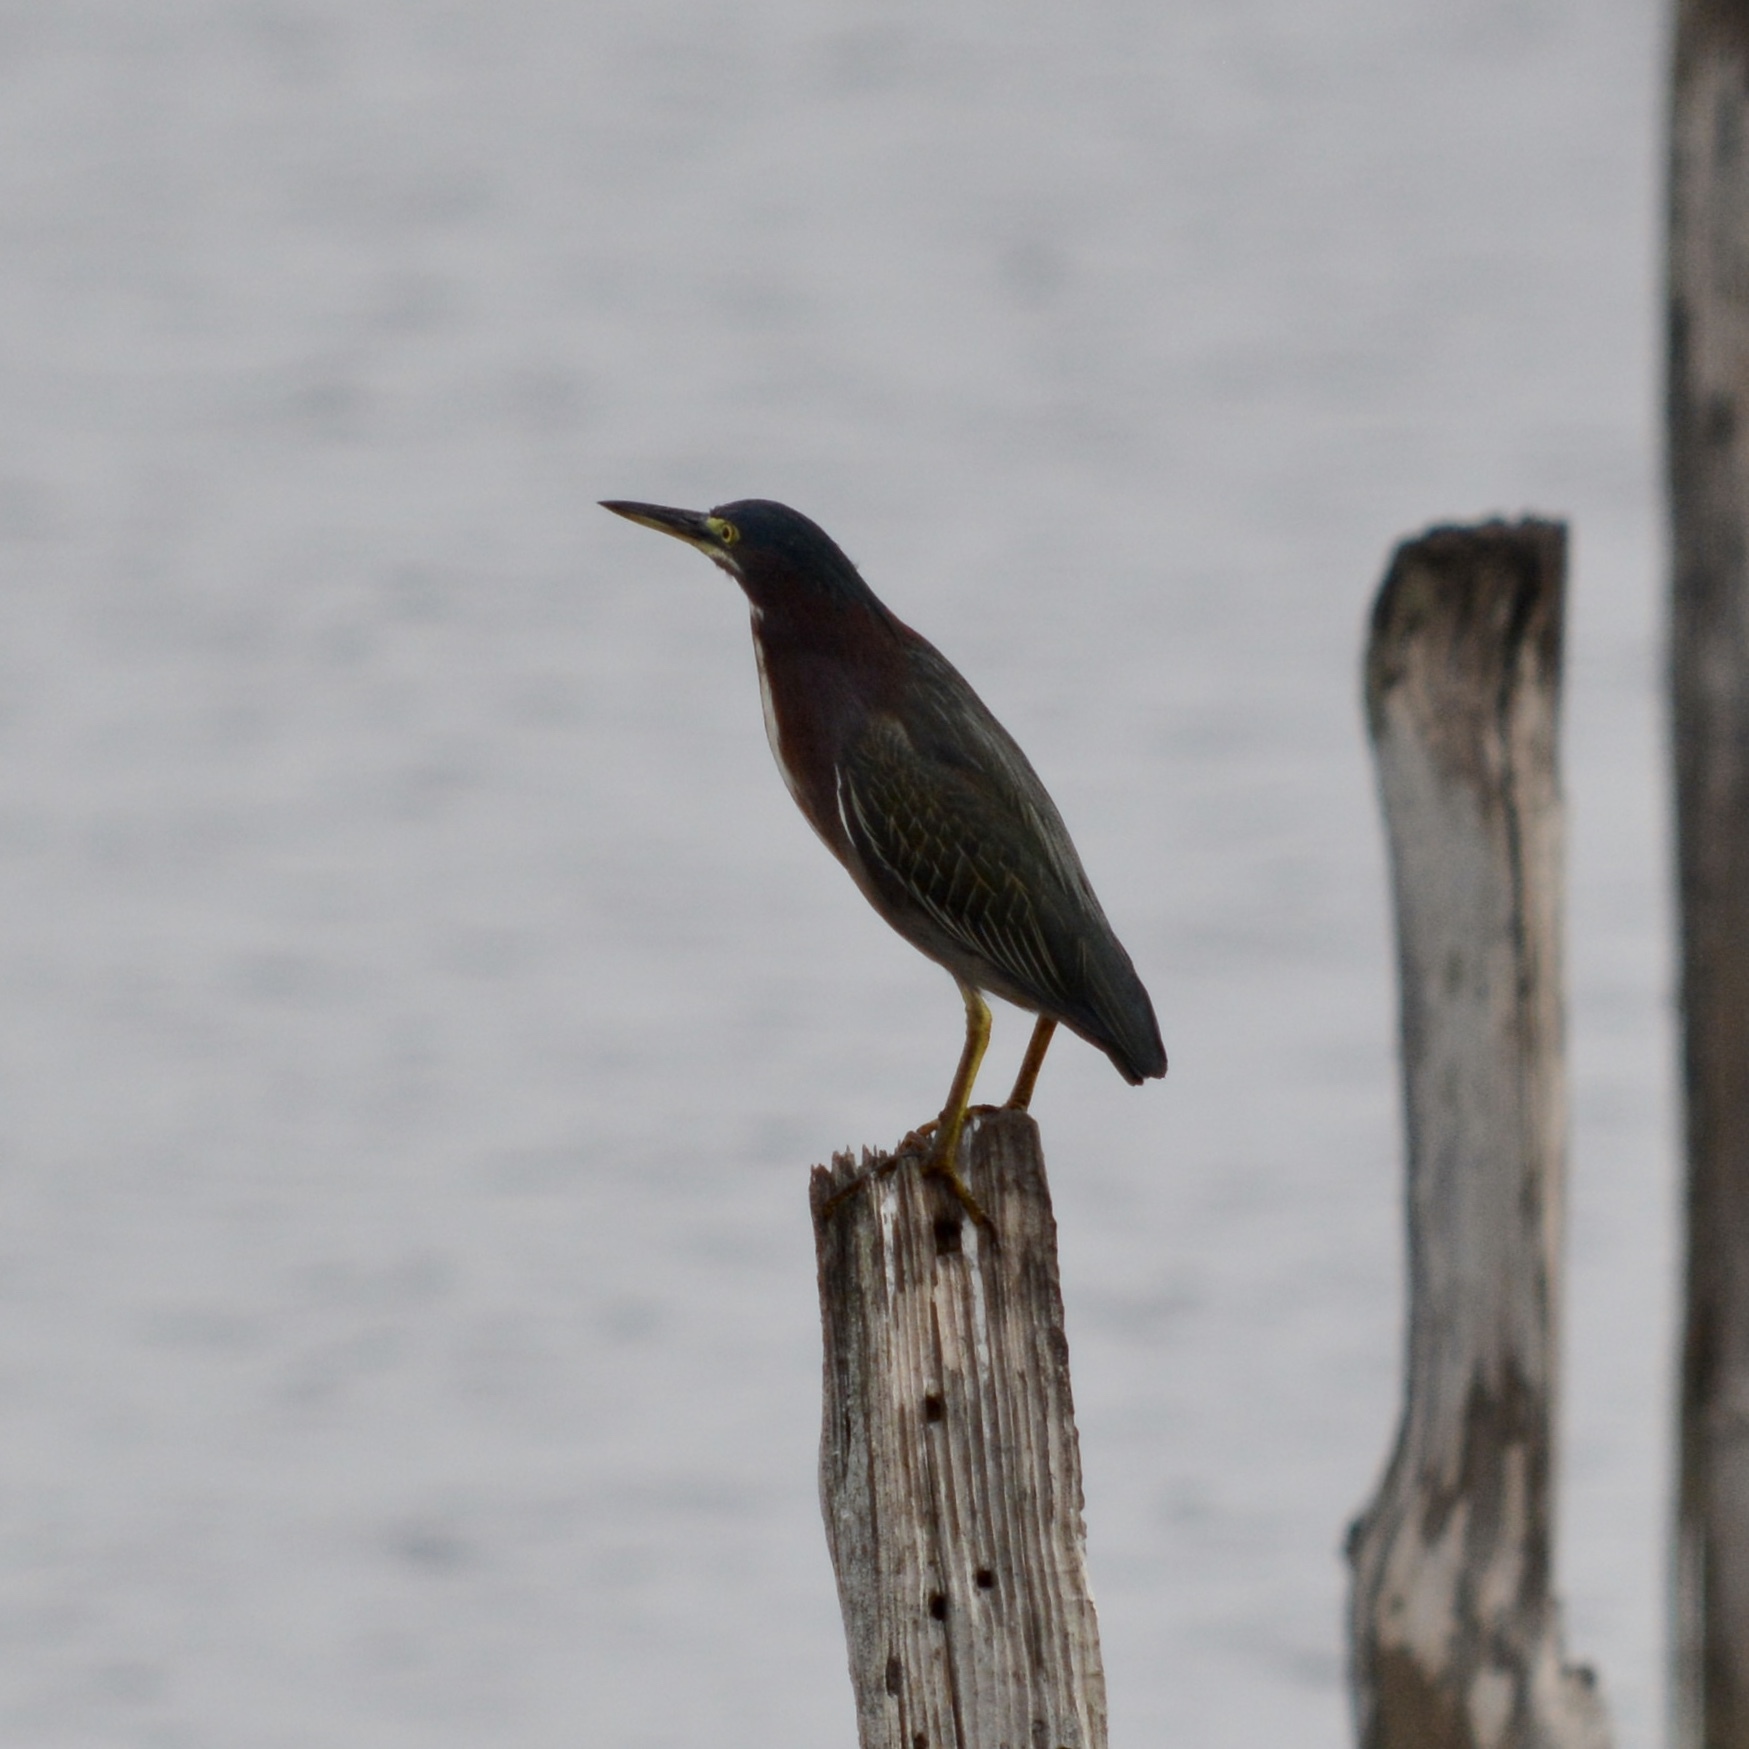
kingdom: Animalia
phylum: Chordata
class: Aves
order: Pelecaniformes
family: Ardeidae
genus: Butorides
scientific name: Butorides virescens
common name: Green heron
